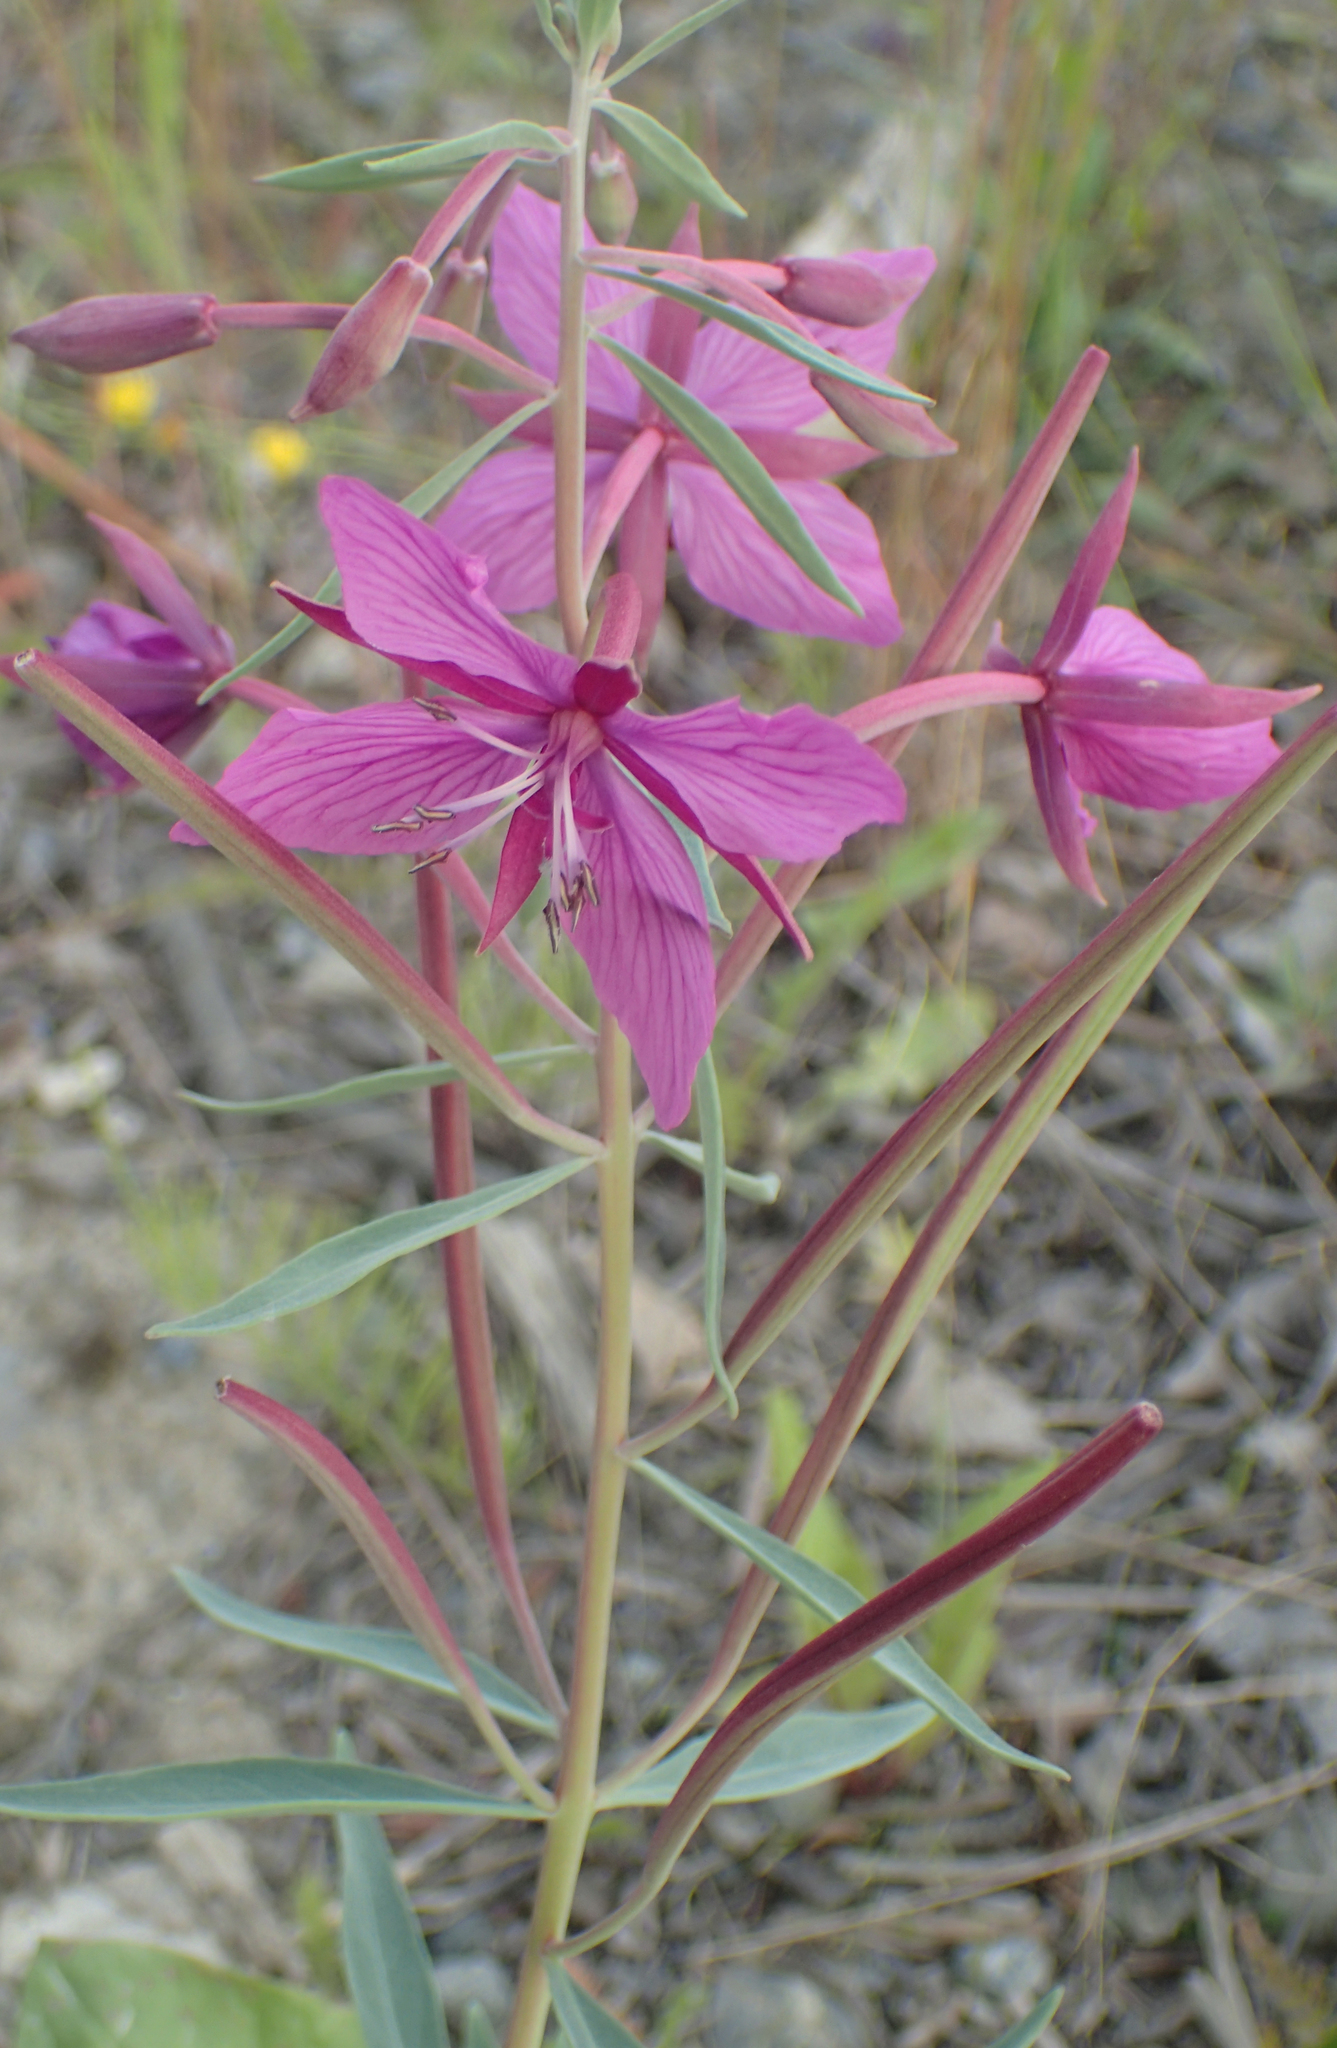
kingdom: Plantae
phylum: Tracheophyta
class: Magnoliopsida
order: Myrtales
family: Onagraceae
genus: Chamaenerion
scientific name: Chamaenerion latifolium
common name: Dwarf fireweed
